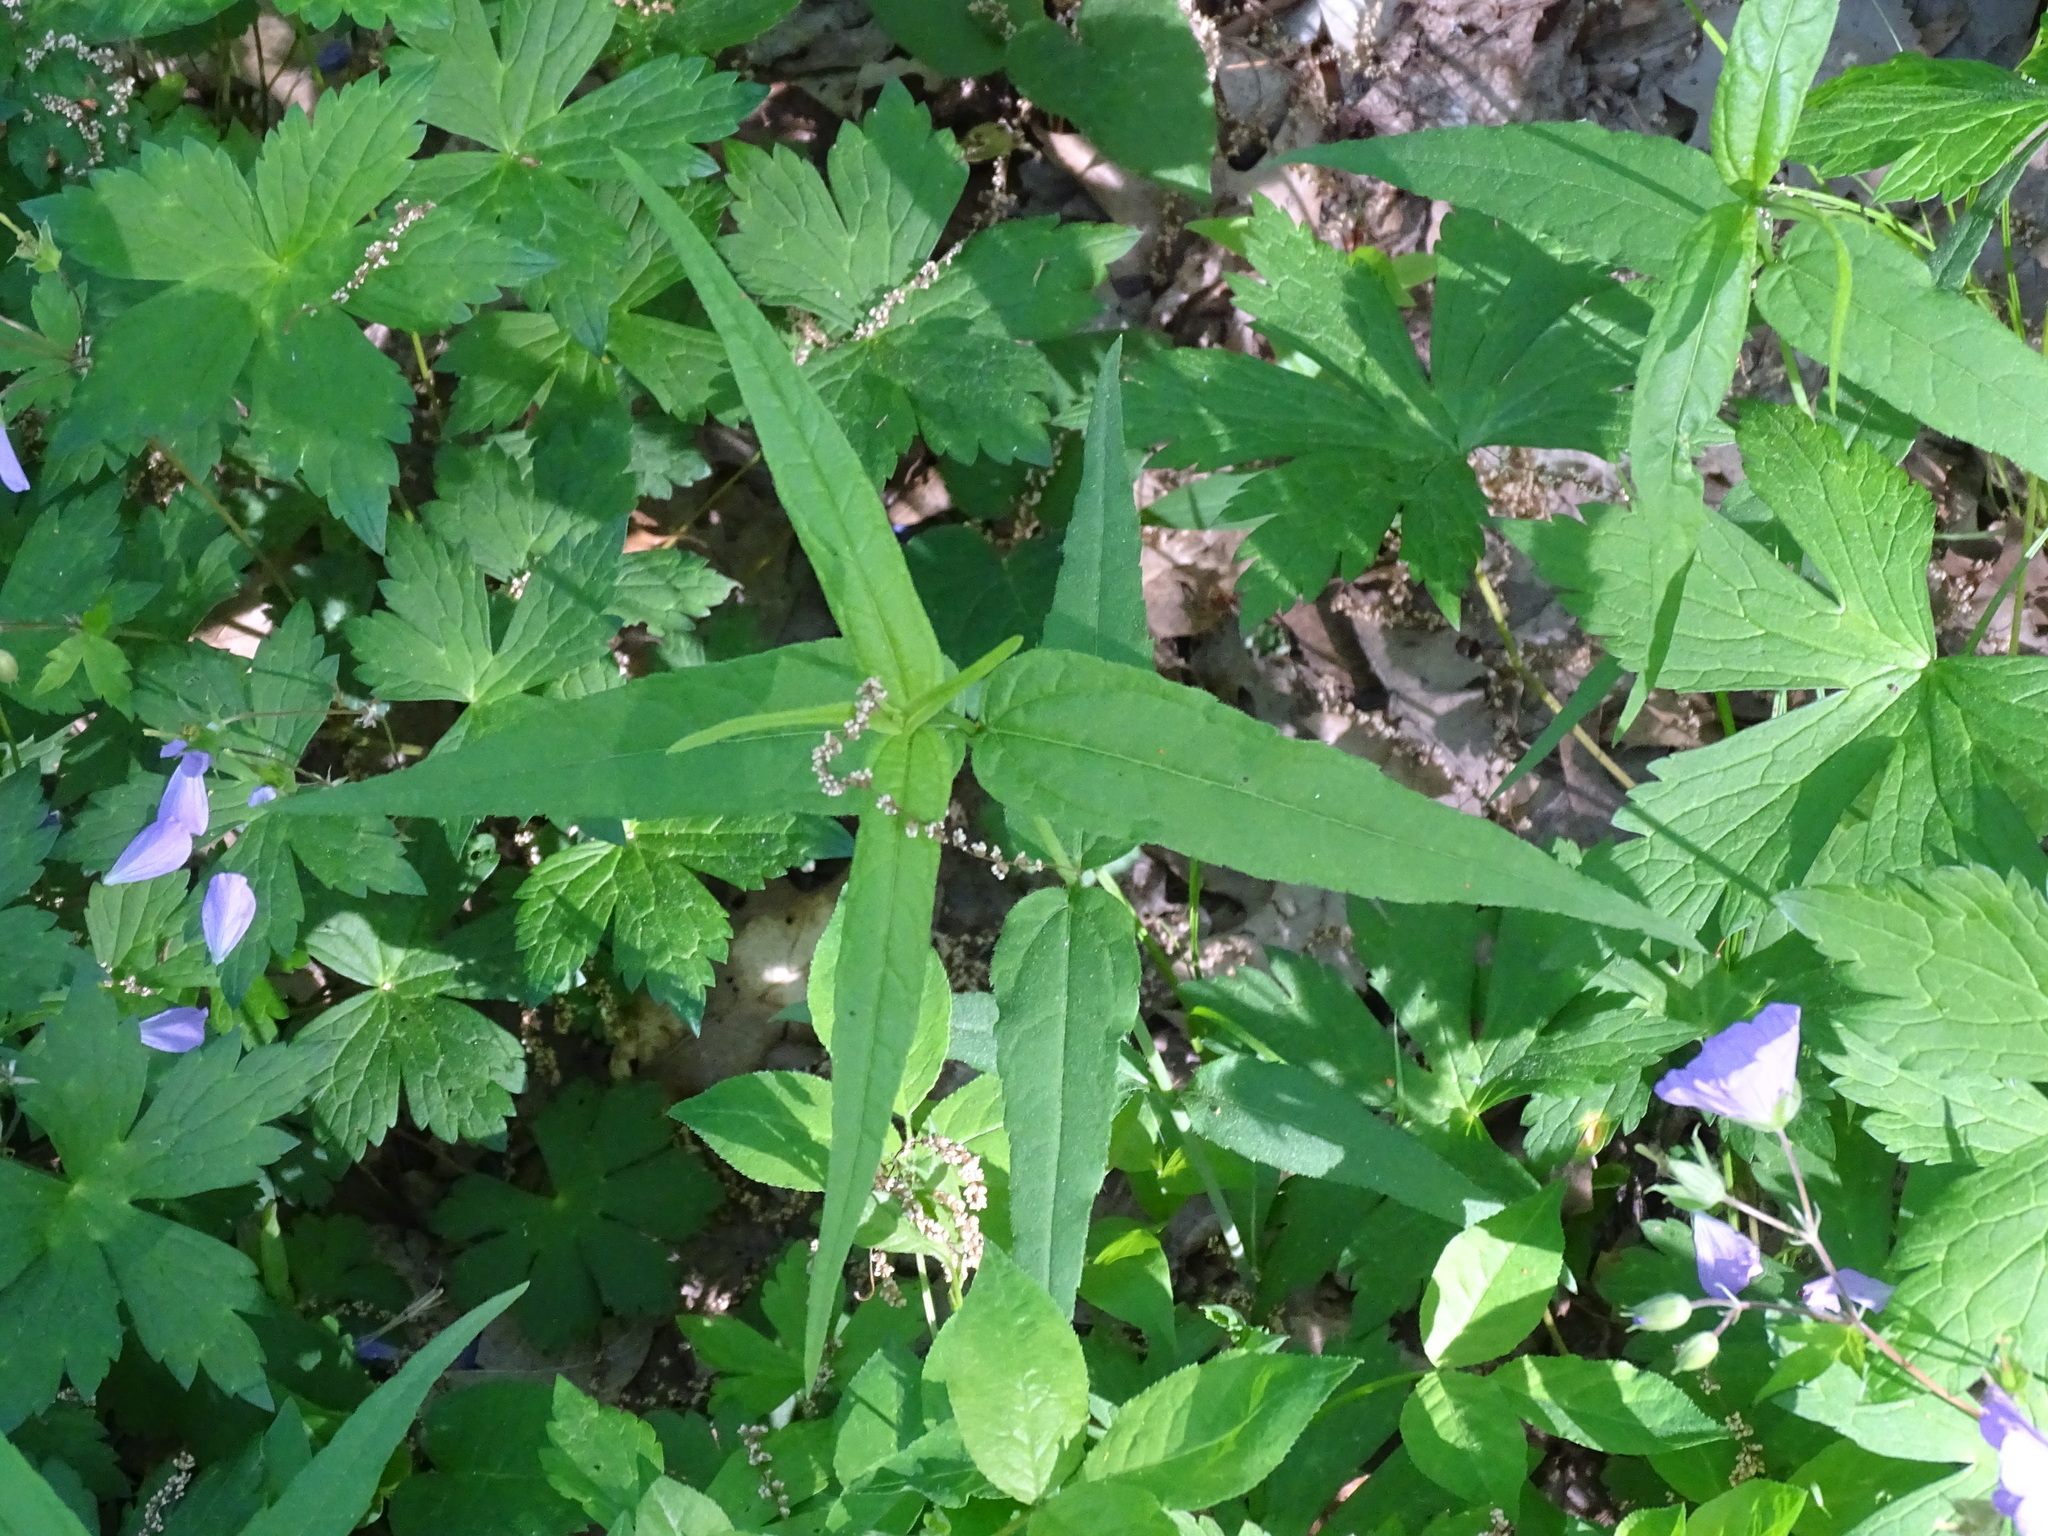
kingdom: Plantae
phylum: Tracheophyta
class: Magnoliopsida
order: Asterales
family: Asteraceae
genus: Helianthus
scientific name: Helianthus divaricatus
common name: Divergent sunflower
